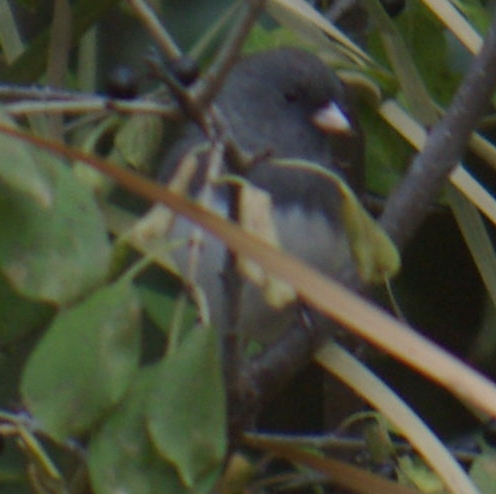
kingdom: Animalia
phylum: Chordata
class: Aves
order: Passeriformes
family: Passerellidae
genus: Junco
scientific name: Junco hyemalis
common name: Dark-eyed junco
